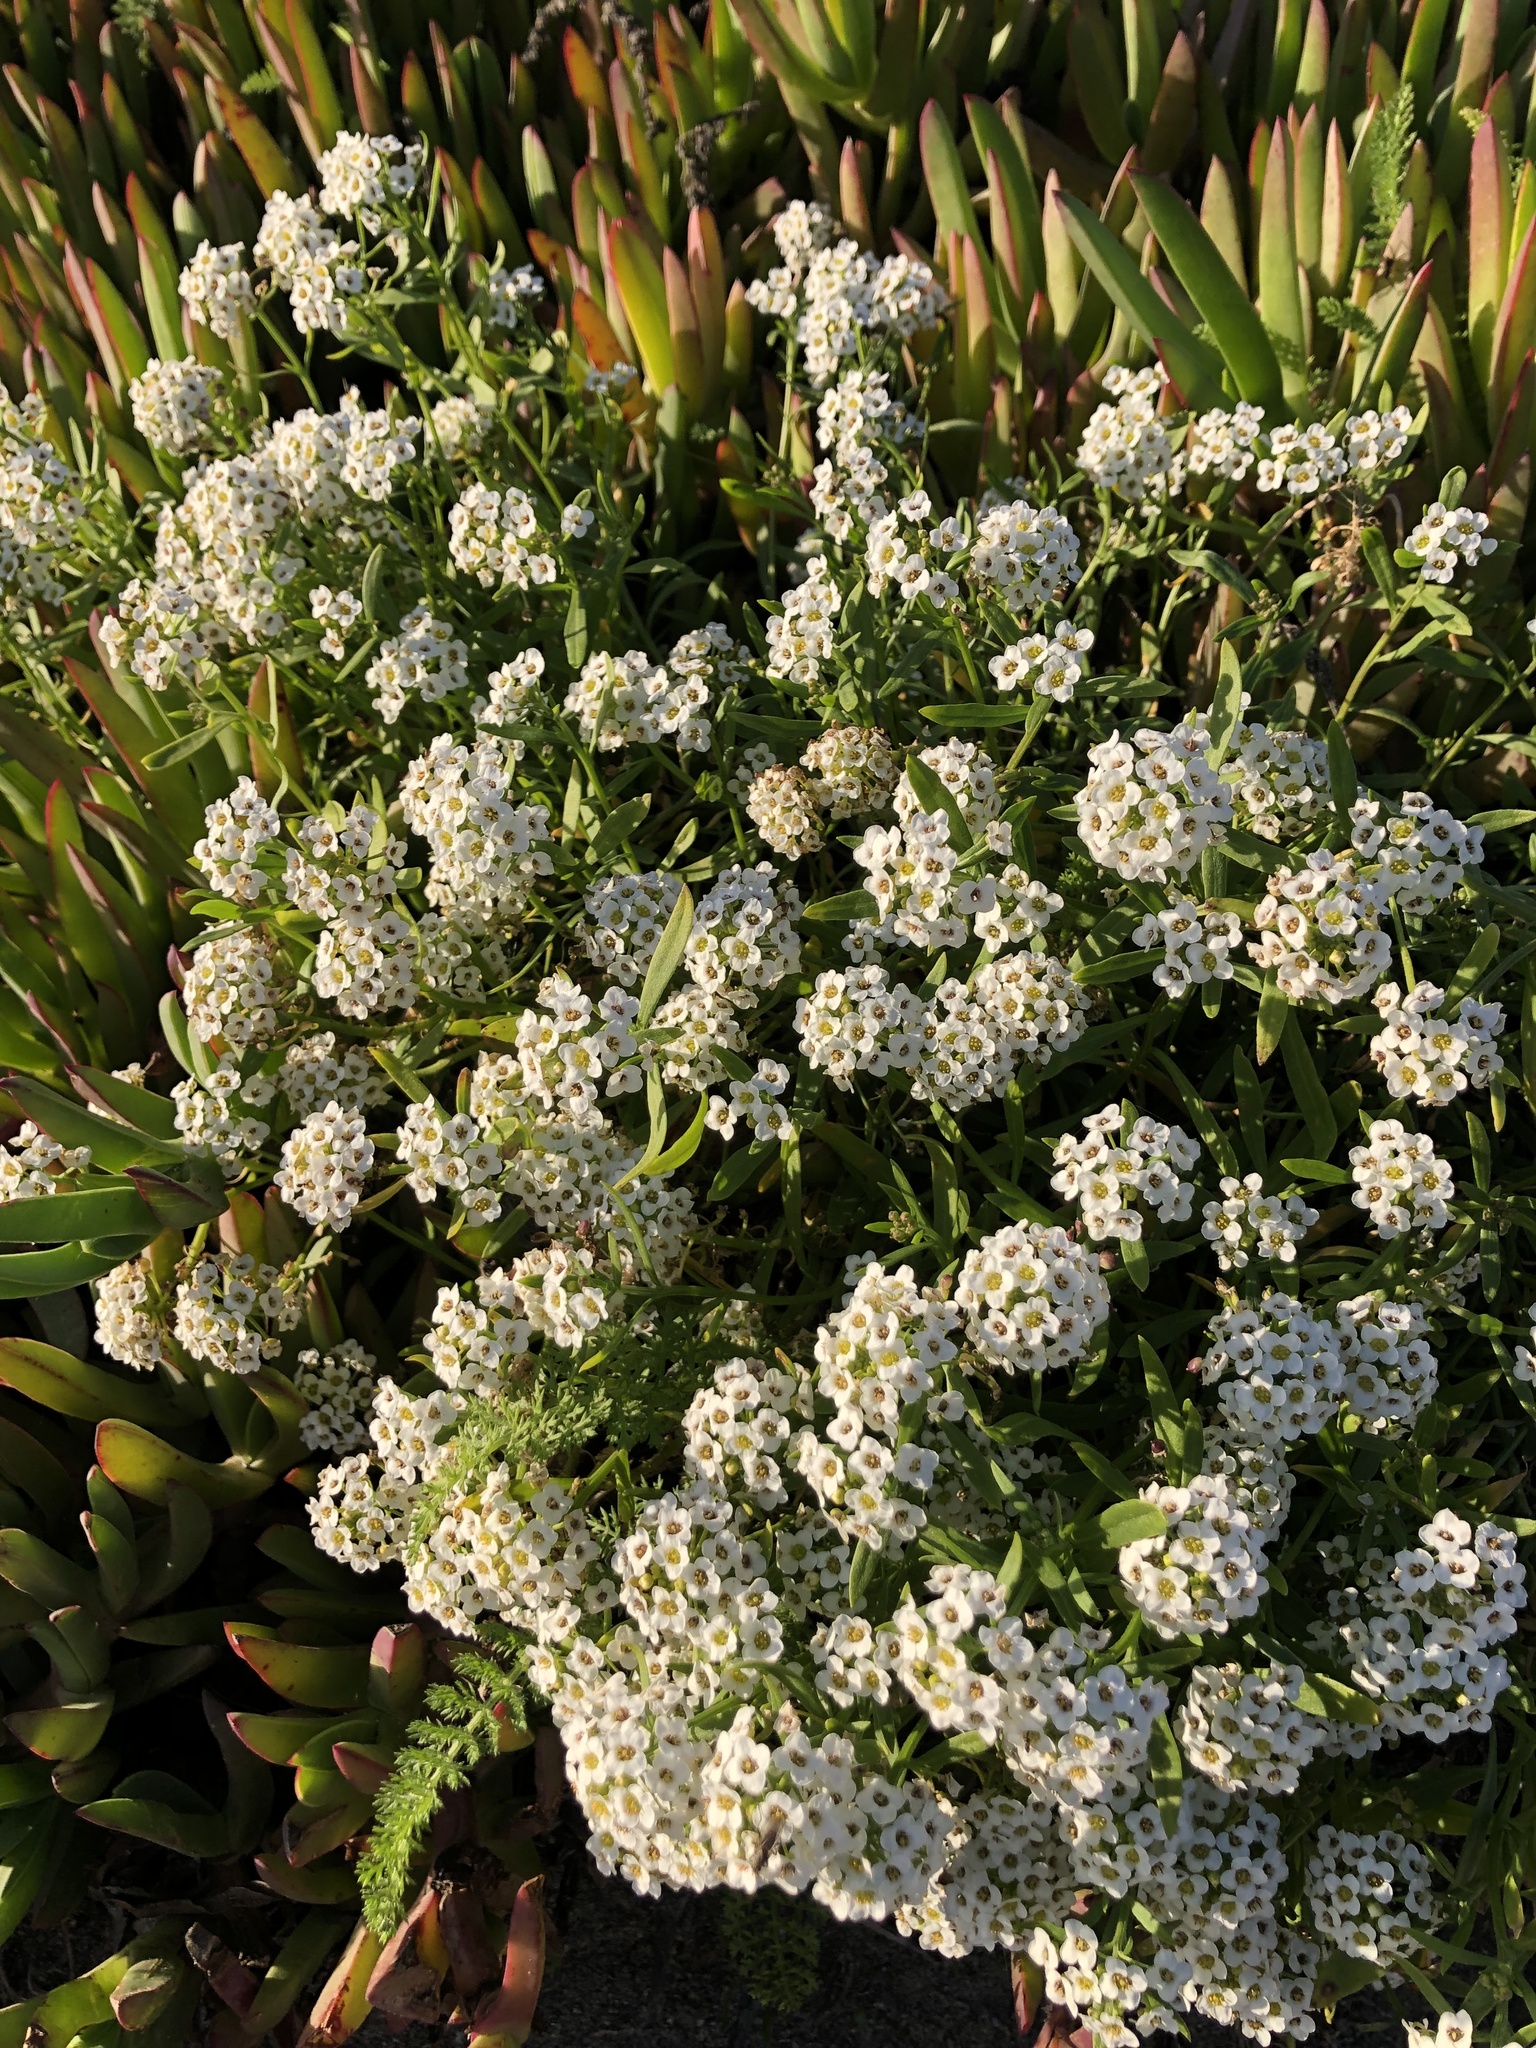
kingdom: Plantae
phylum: Tracheophyta
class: Magnoliopsida
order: Brassicales
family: Brassicaceae
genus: Lobularia
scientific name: Lobularia maritima
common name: Sweet alison
